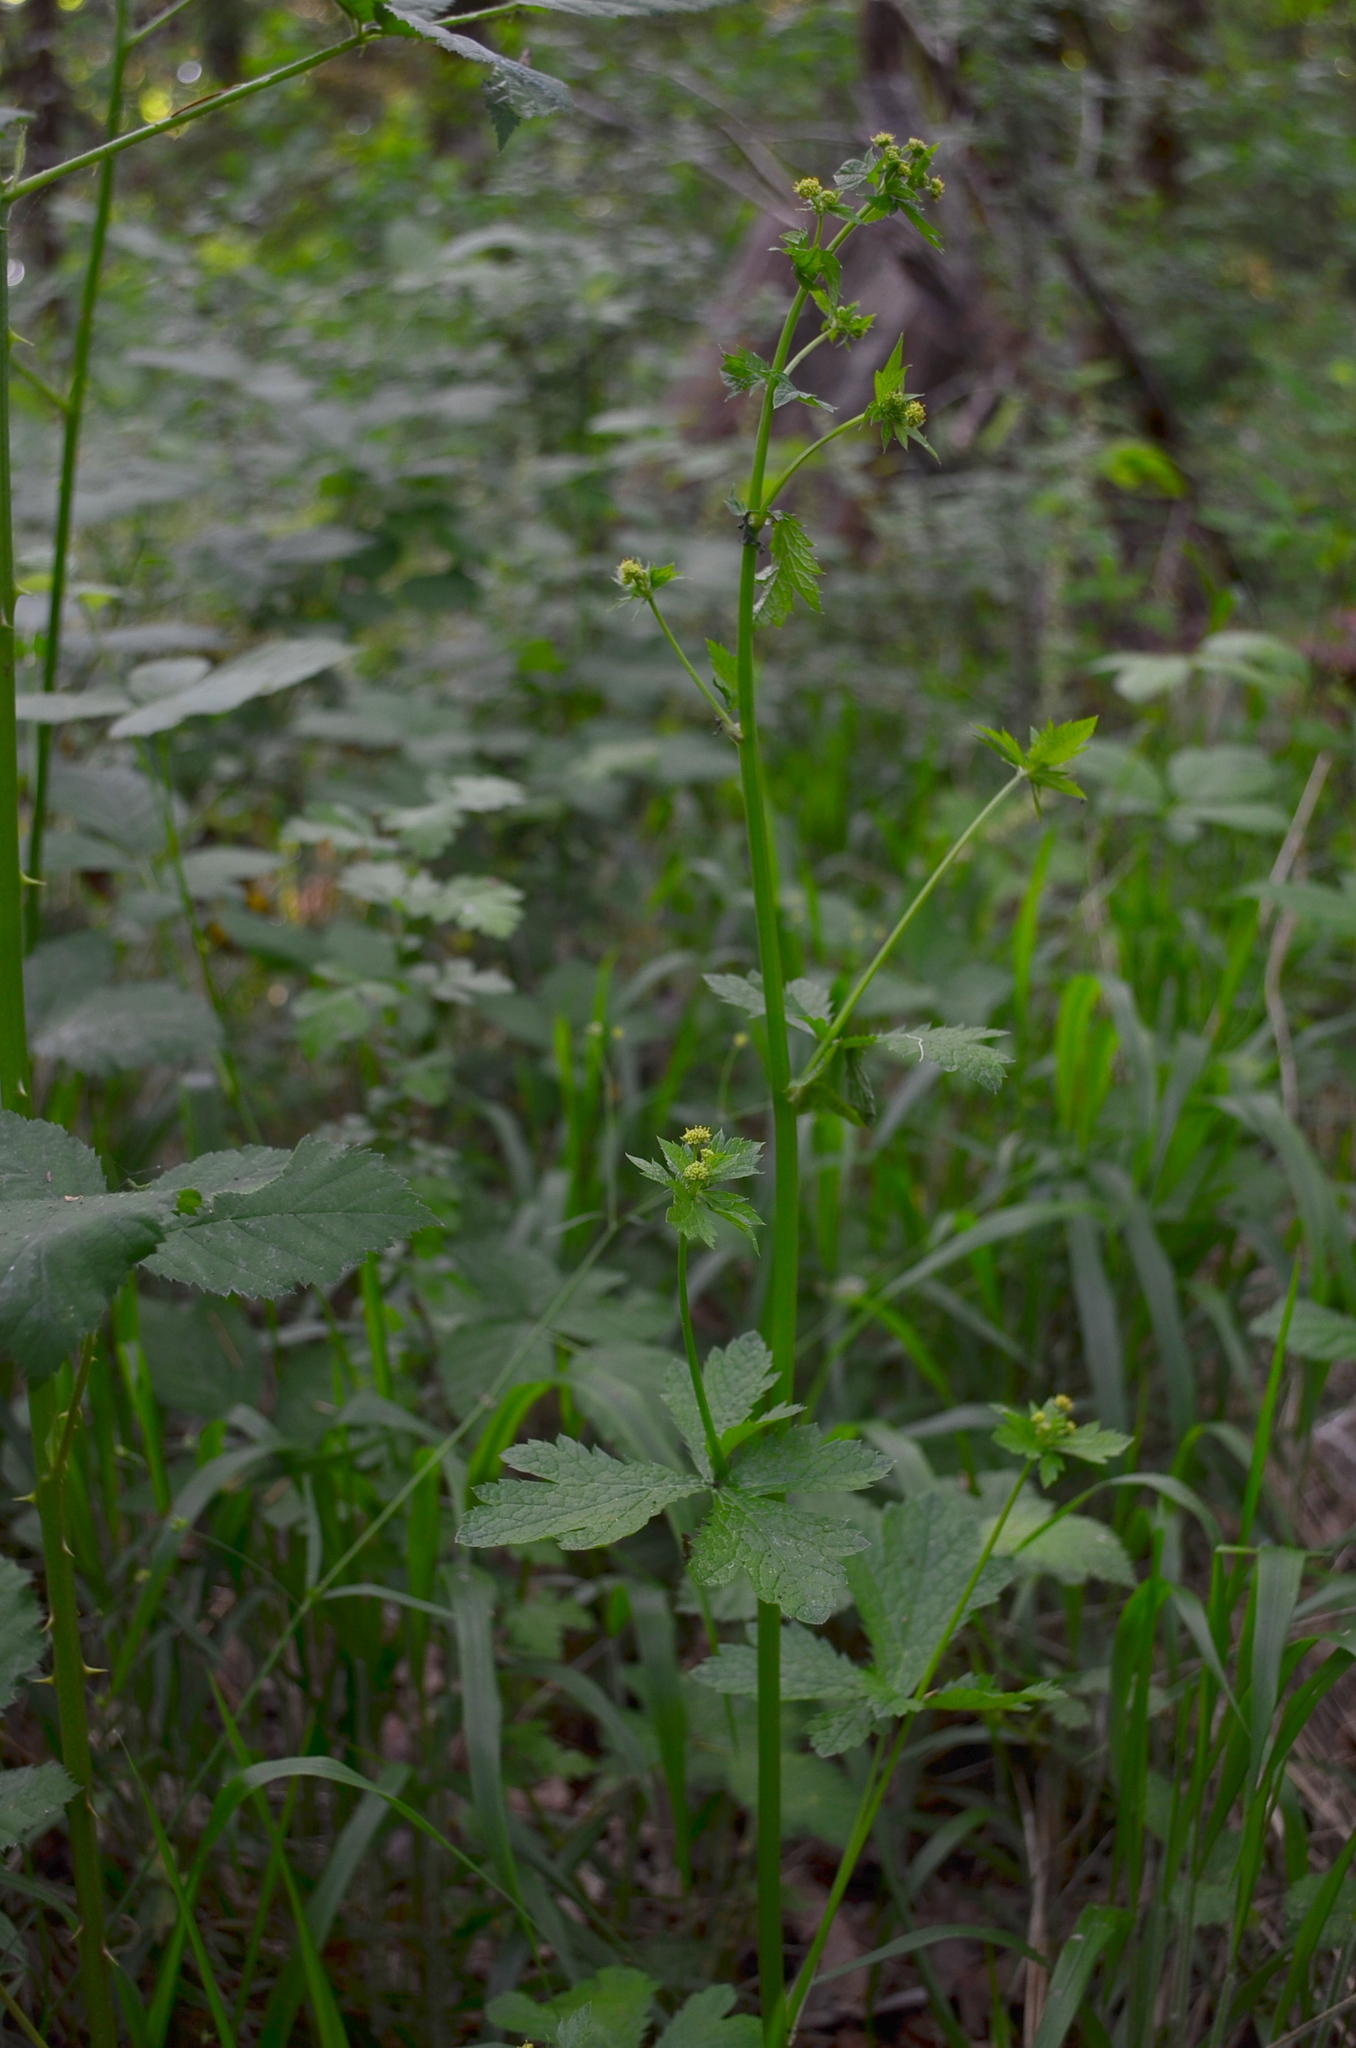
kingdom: Plantae
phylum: Tracheophyta
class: Magnoliopsida
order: Apiales
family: Apiaceae
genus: Sanicula
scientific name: Sanicula crassicaulis
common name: Western snakeroot
